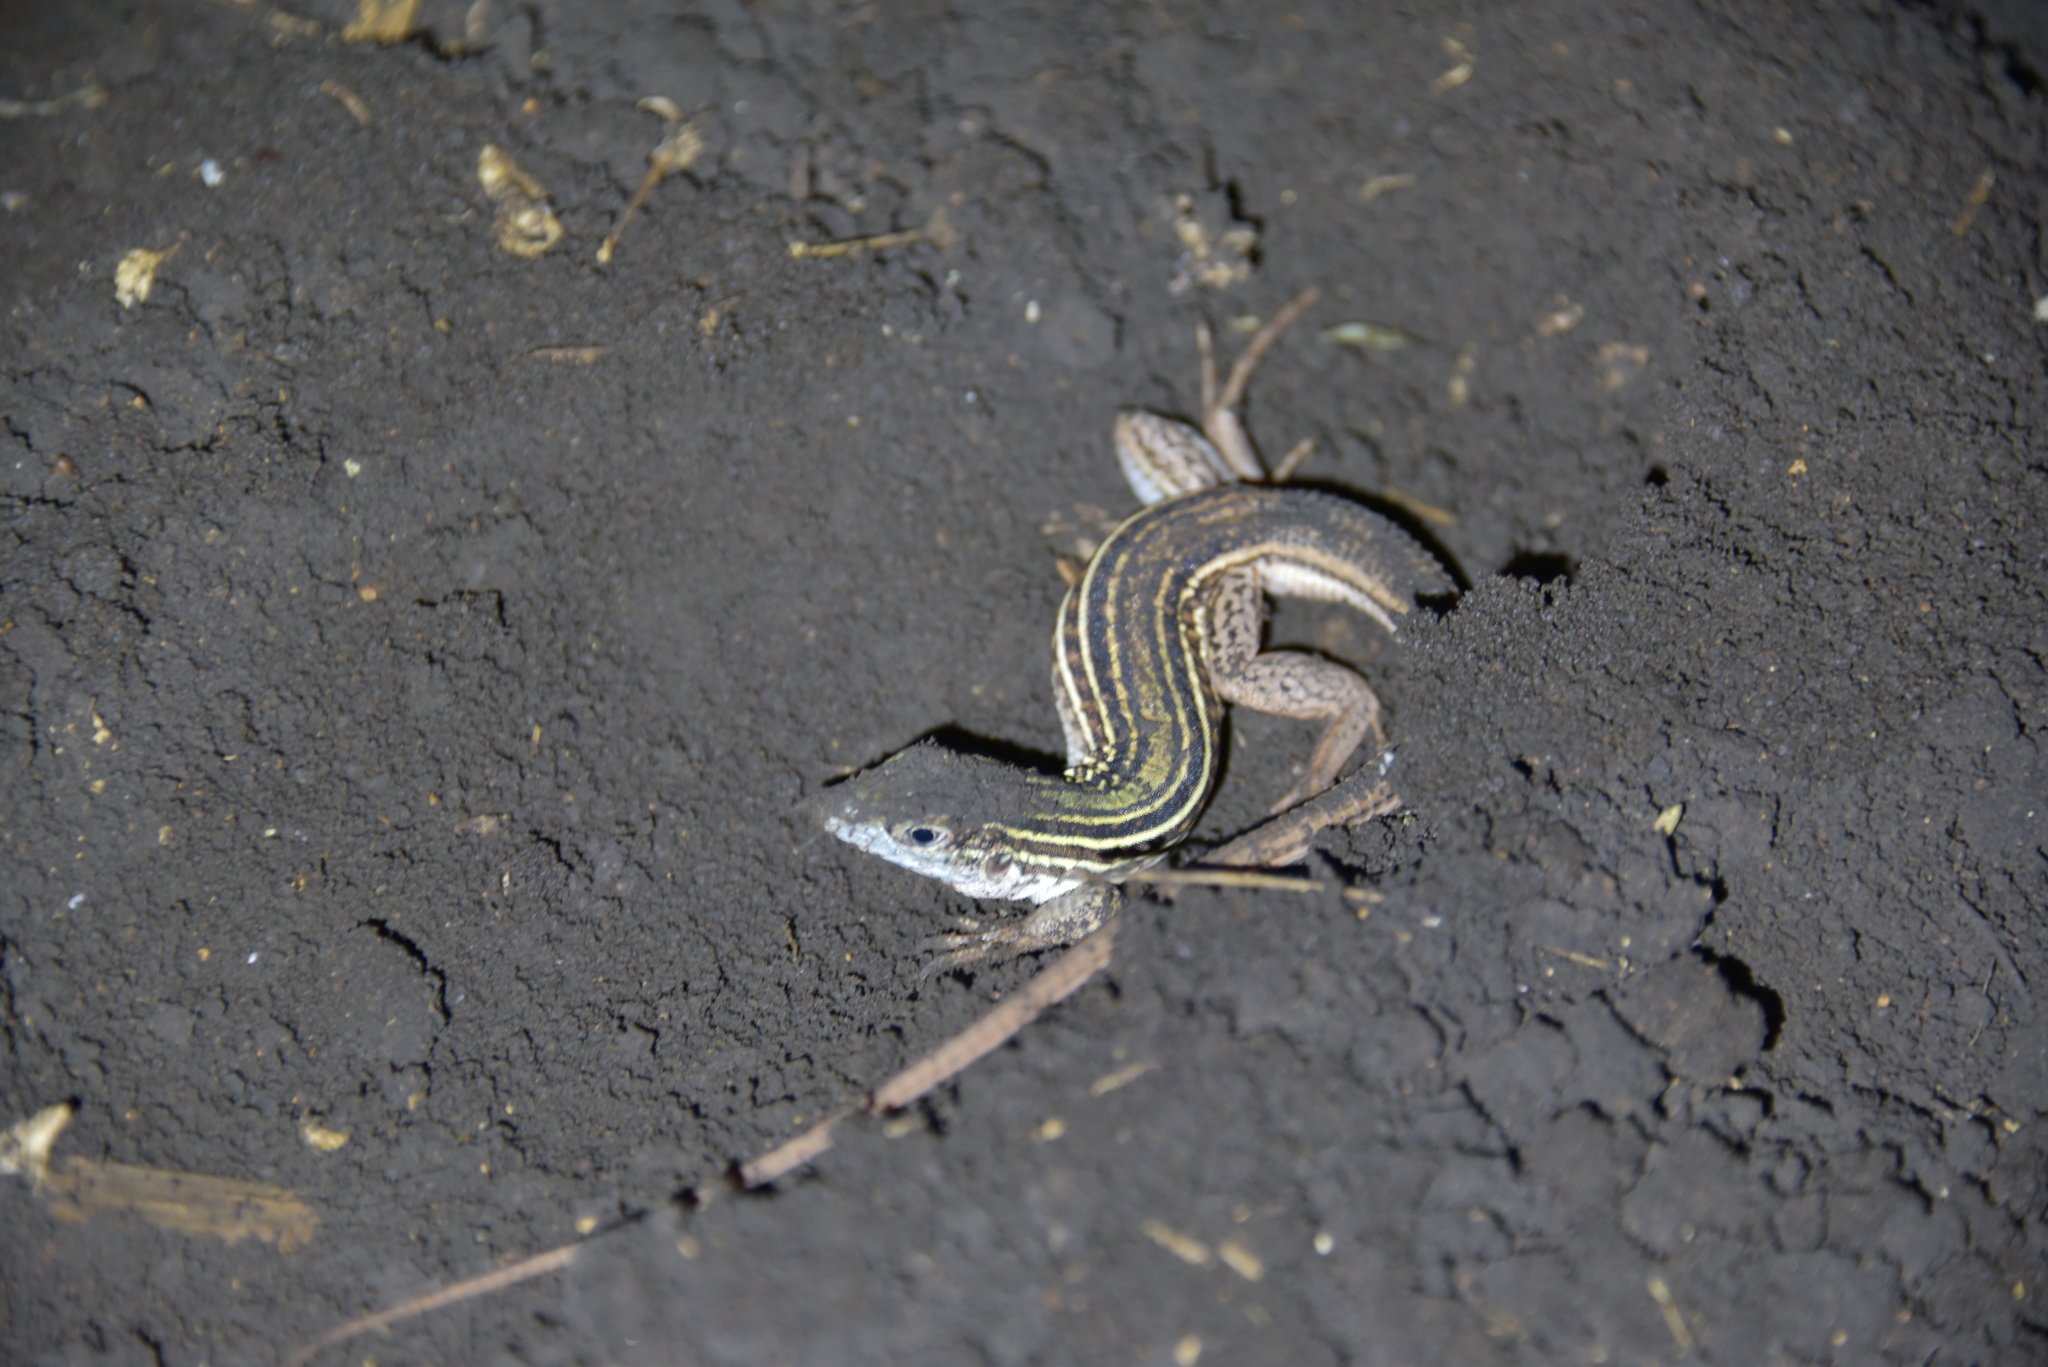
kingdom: Animalia
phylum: Chordata
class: Squamata
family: Teiidae
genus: Aspidoscelis
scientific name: Aspidoscelis gularis
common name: Eastern spotted whiptail
